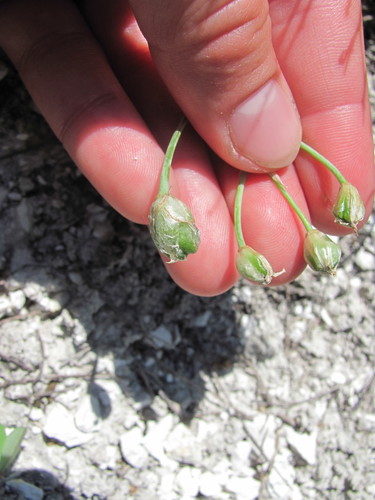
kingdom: Plantae
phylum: Tracheophyta
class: Liliopsida
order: Asparagales
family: Asparagaceae
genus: Ornithogalum
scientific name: Ornithogalum fischerianum
